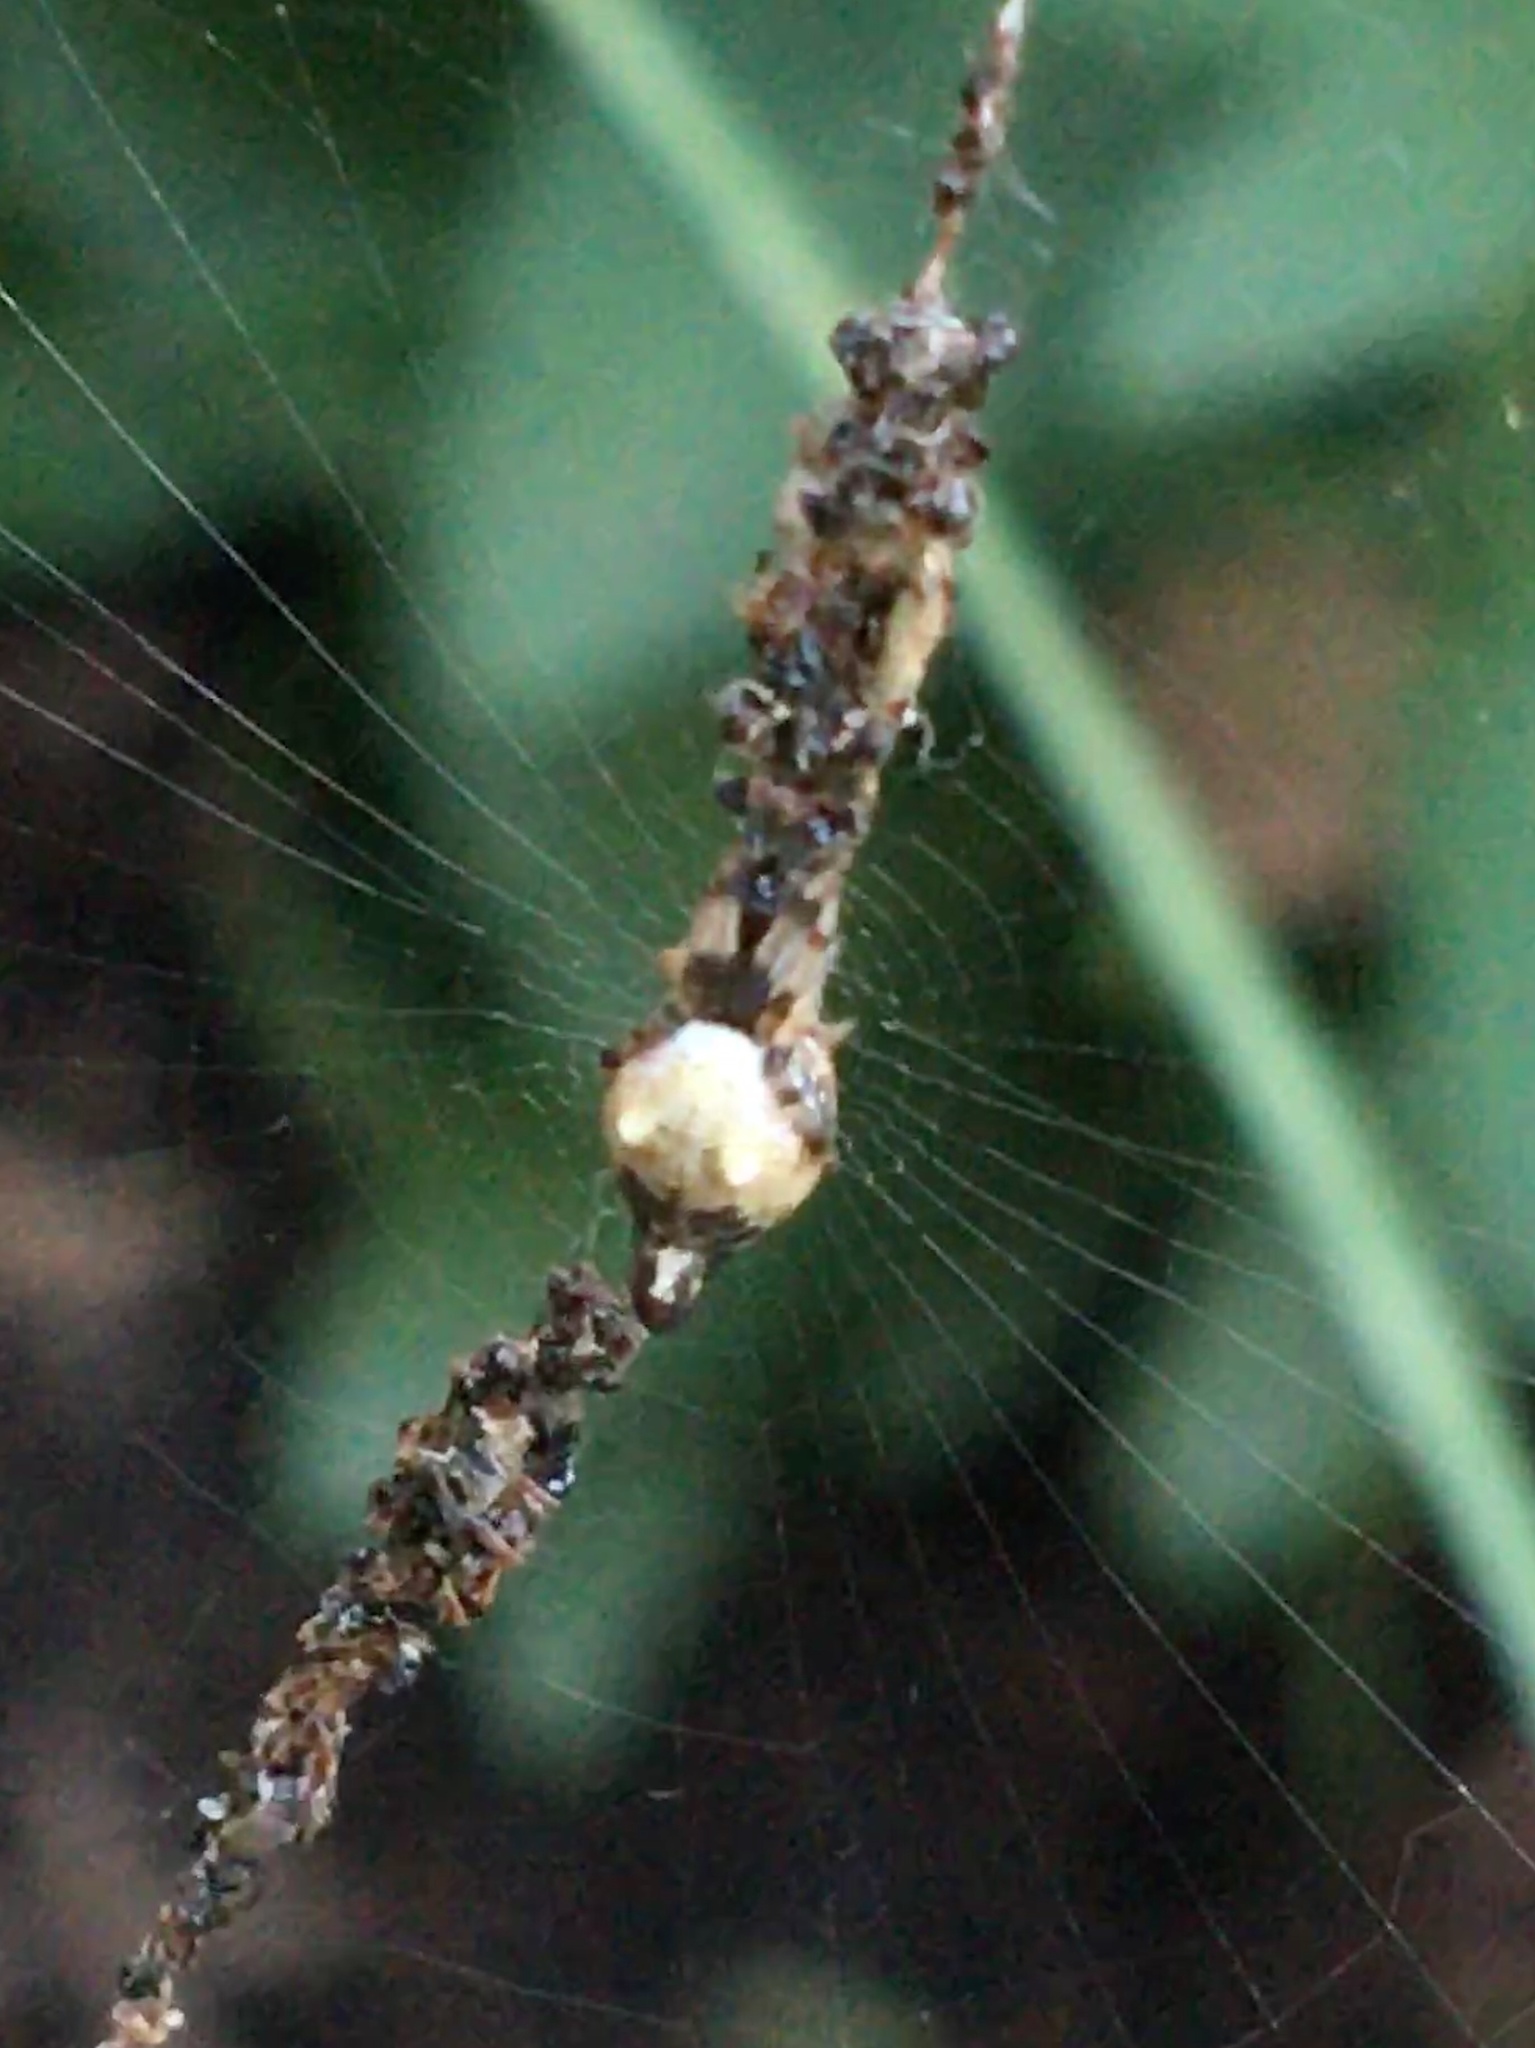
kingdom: Animalia
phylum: Arthropoda
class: Arachnida
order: Araneae
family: Araneidae
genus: Cyclosa
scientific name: Cyclosa turbinata
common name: Orb weavers
